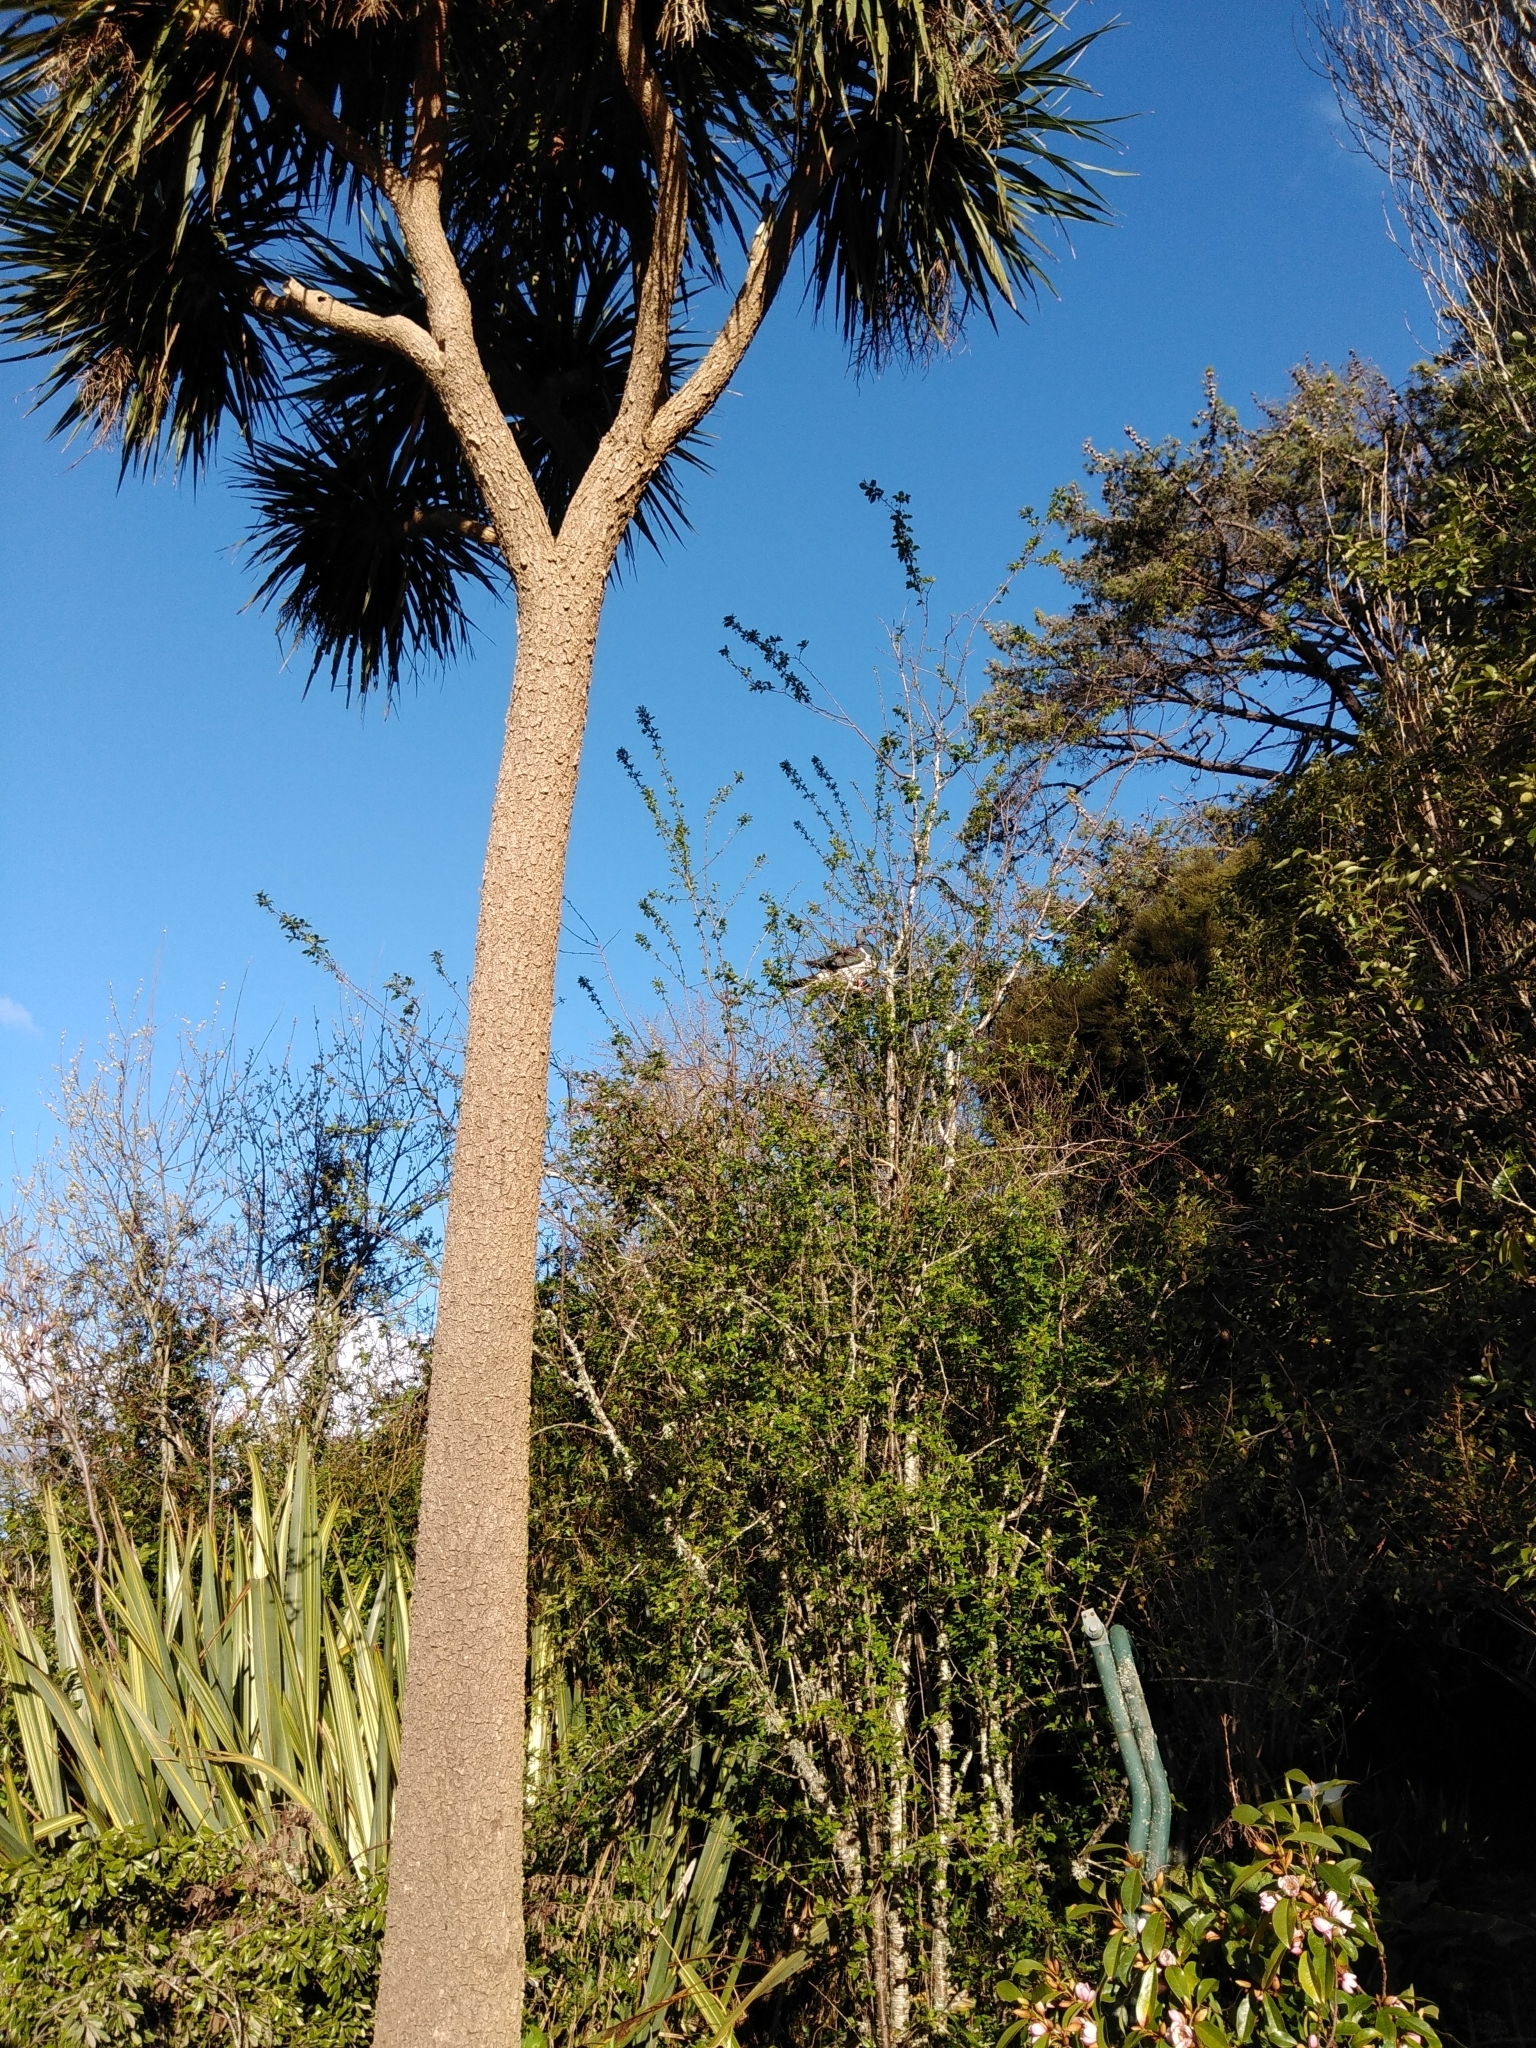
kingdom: Animalia
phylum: Chordata
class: Aves
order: Columbiformes
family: Columbidae
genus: Hemiphaga
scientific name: Hemiphaga novaeseelandiae
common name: New zealand pigeon
